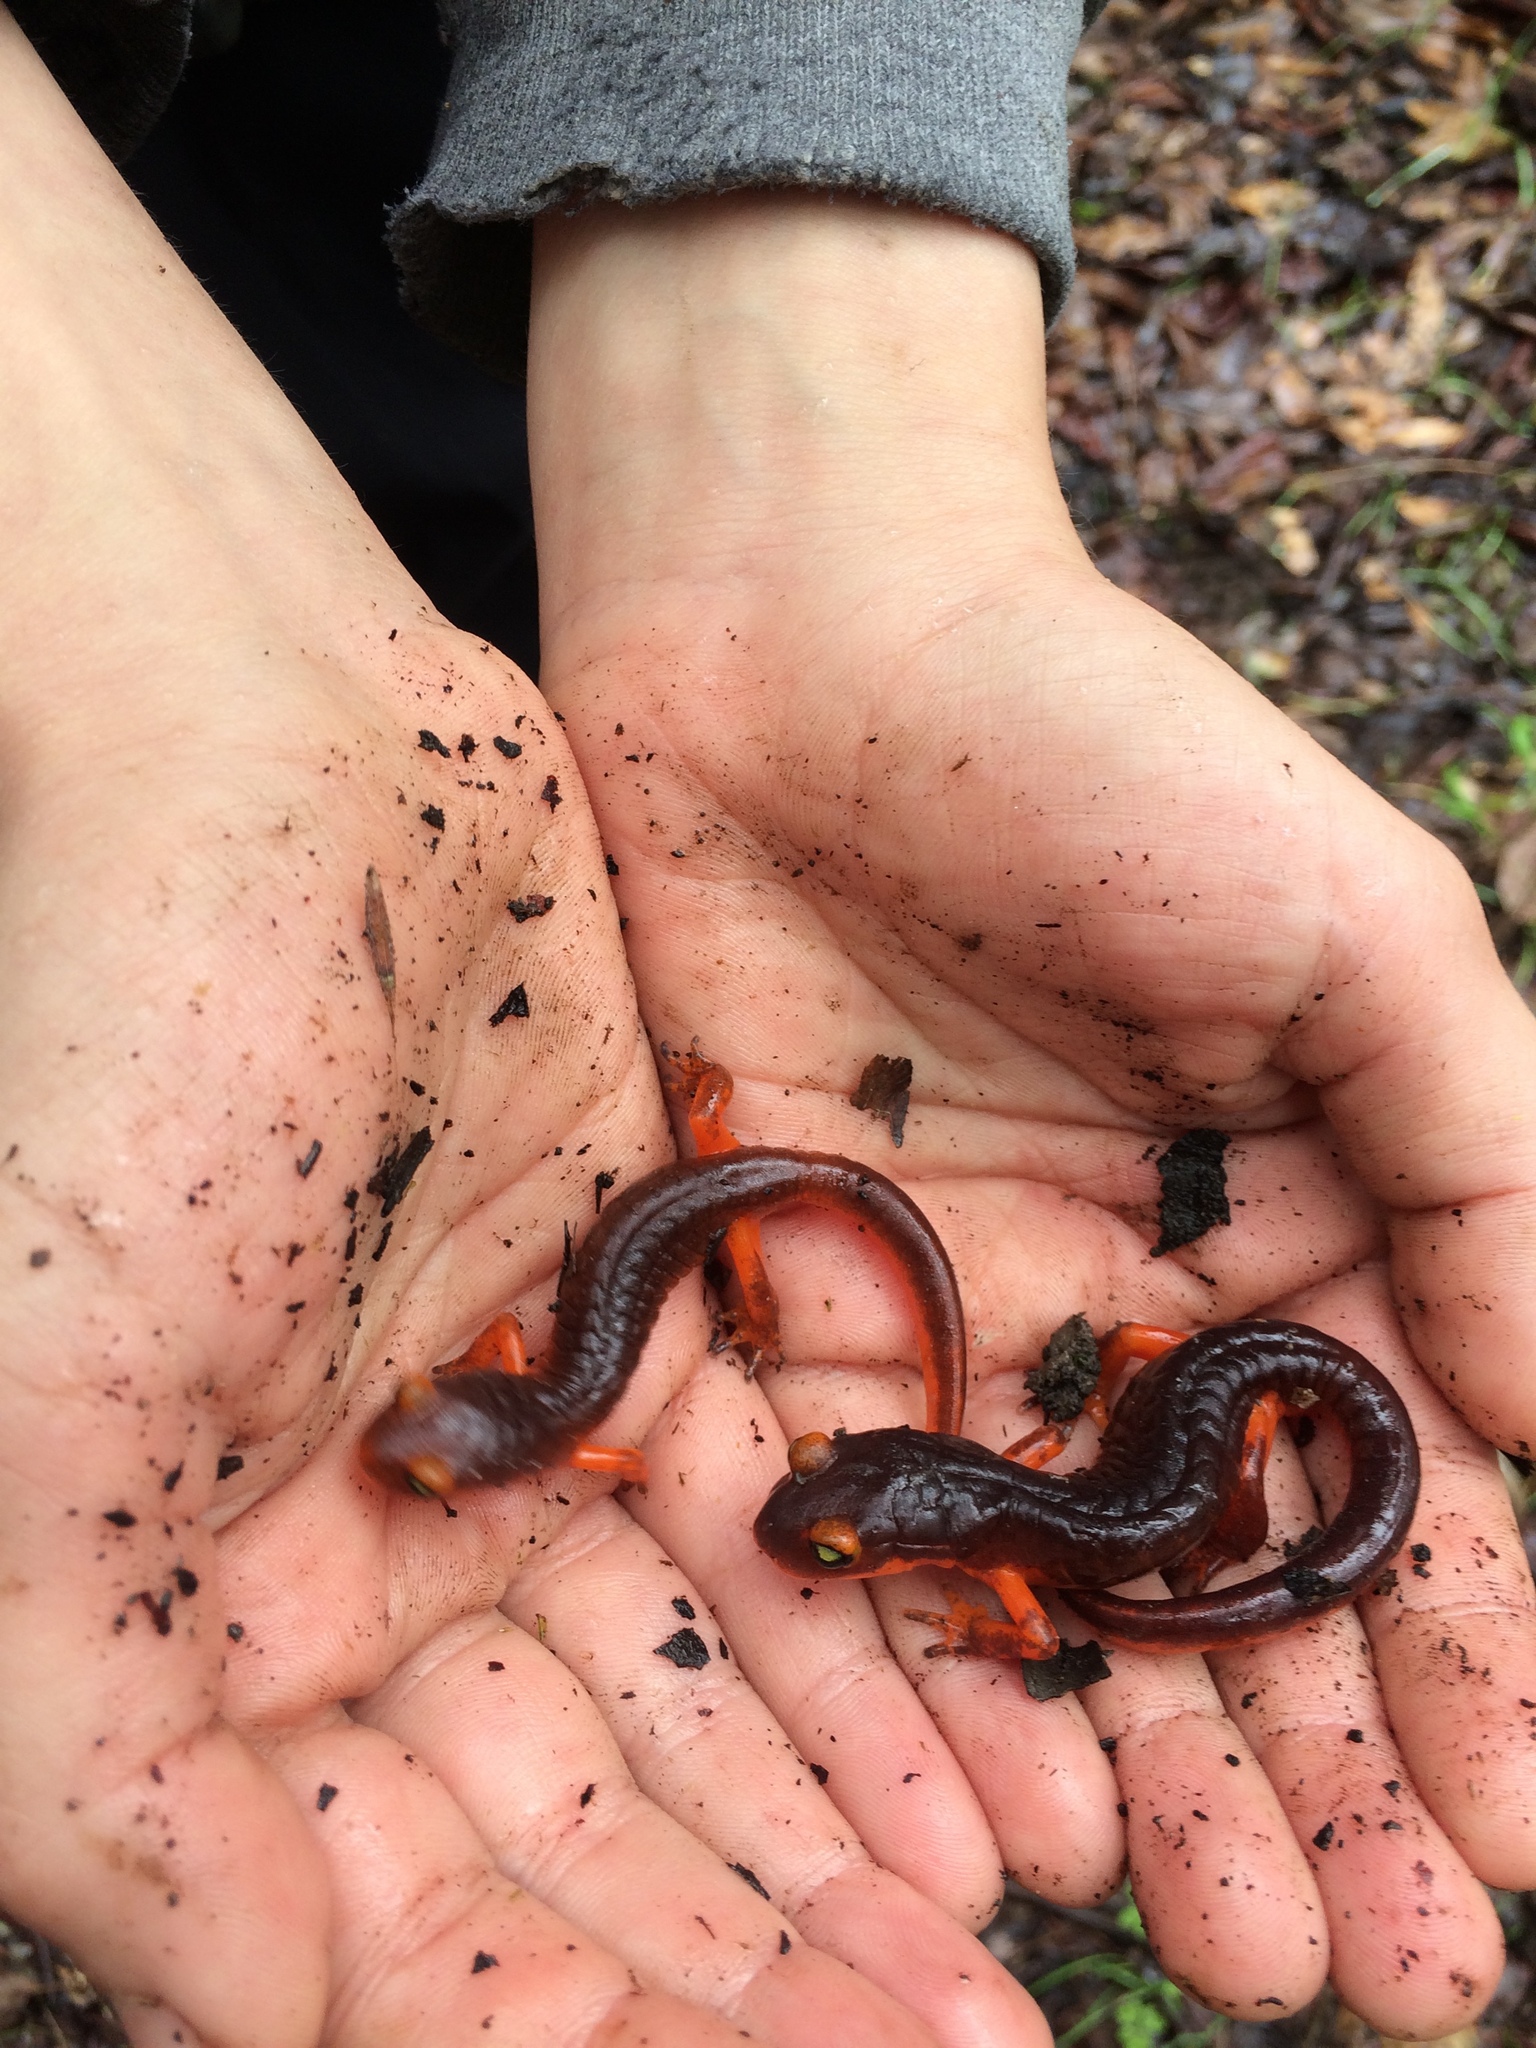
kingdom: Animalia
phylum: Chordata
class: Amphibia
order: Caudata
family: Plethodontidae
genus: Ensatina
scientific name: Ensatina eschscholtzii
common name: Ensatina
